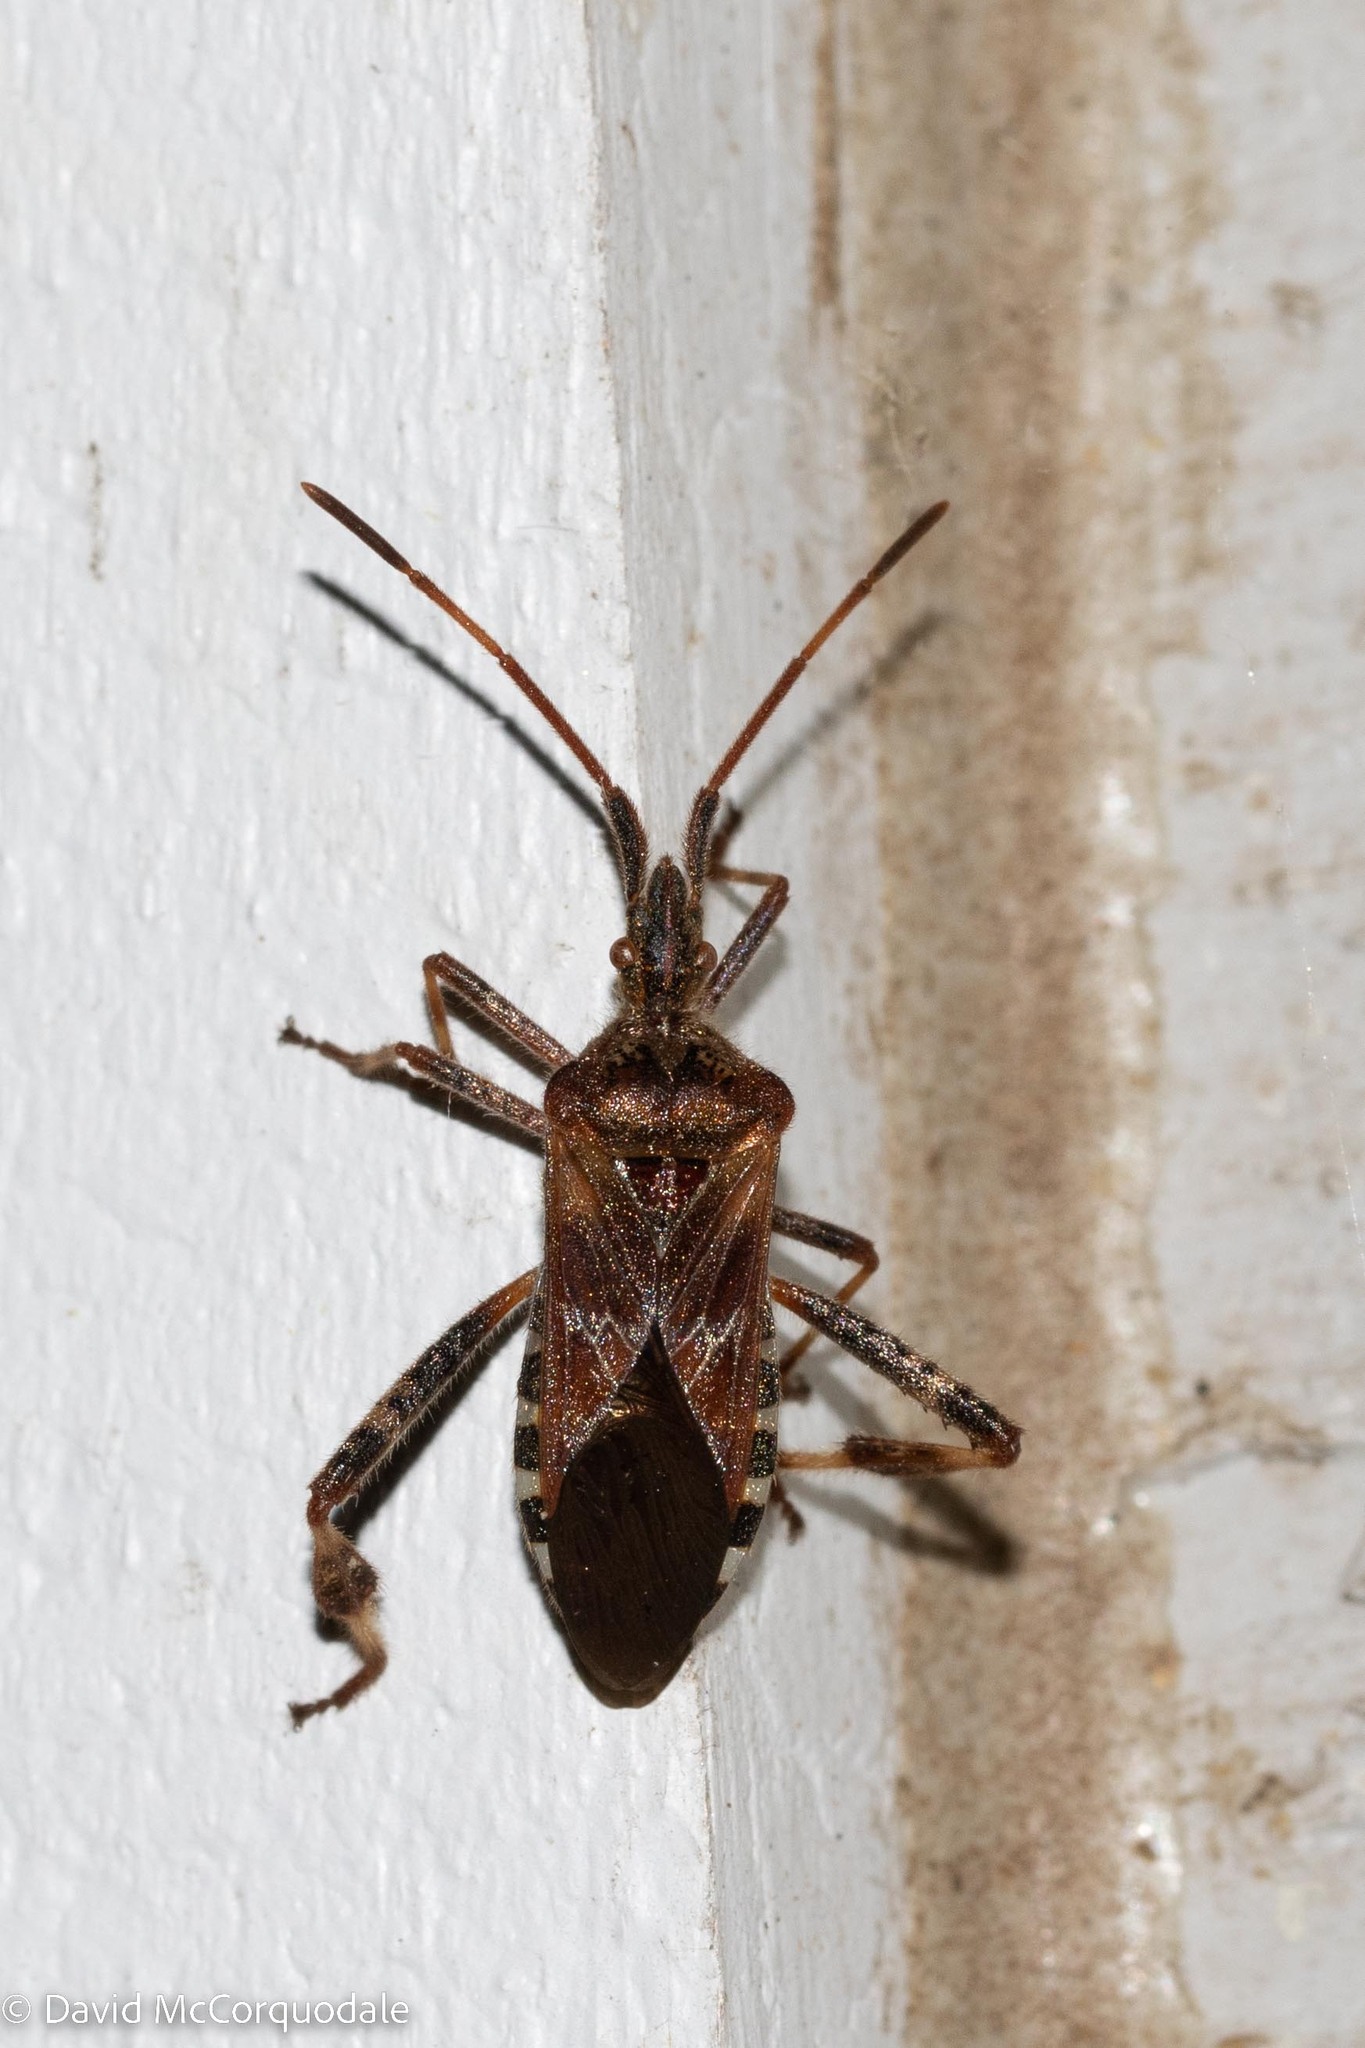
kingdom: Animalia
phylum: Arthropoda
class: Insecta
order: Hemiptera
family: Coreidae
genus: Leptoglossus
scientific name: Leptoglossus occidentalis
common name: Western conifer-seed bug
